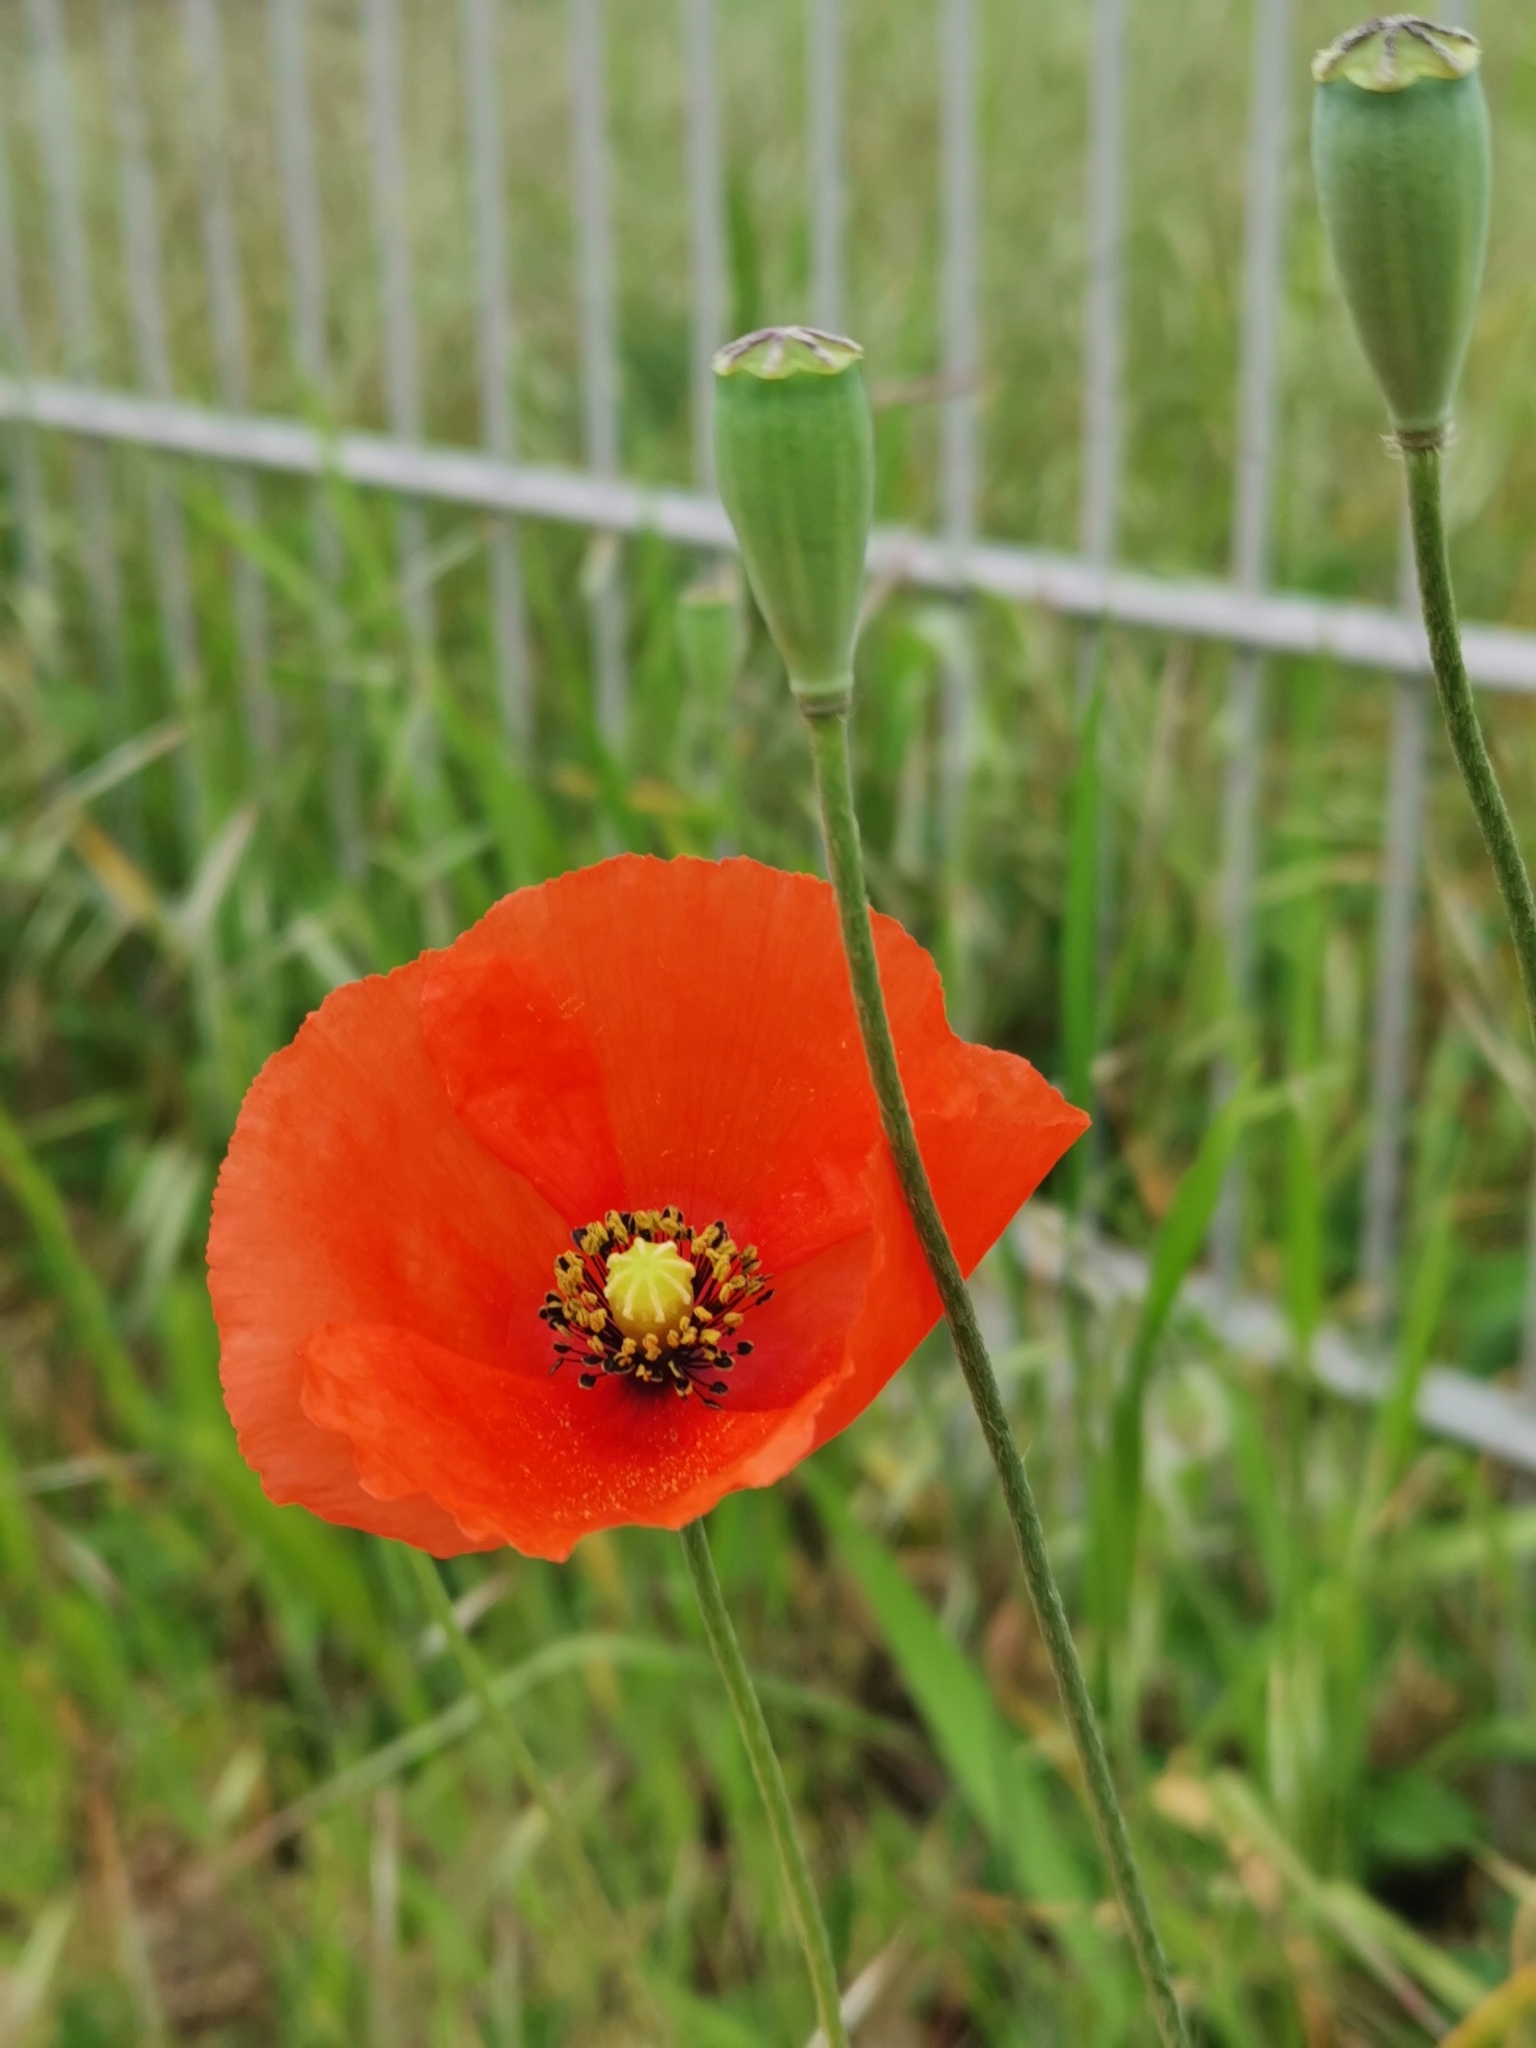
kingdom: Plantae
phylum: Tracheophyta
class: Magnoliopsida
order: Ranunculales
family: Papaveraceae
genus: Papaver
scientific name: Papaver dubium
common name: Long-headed poppy
